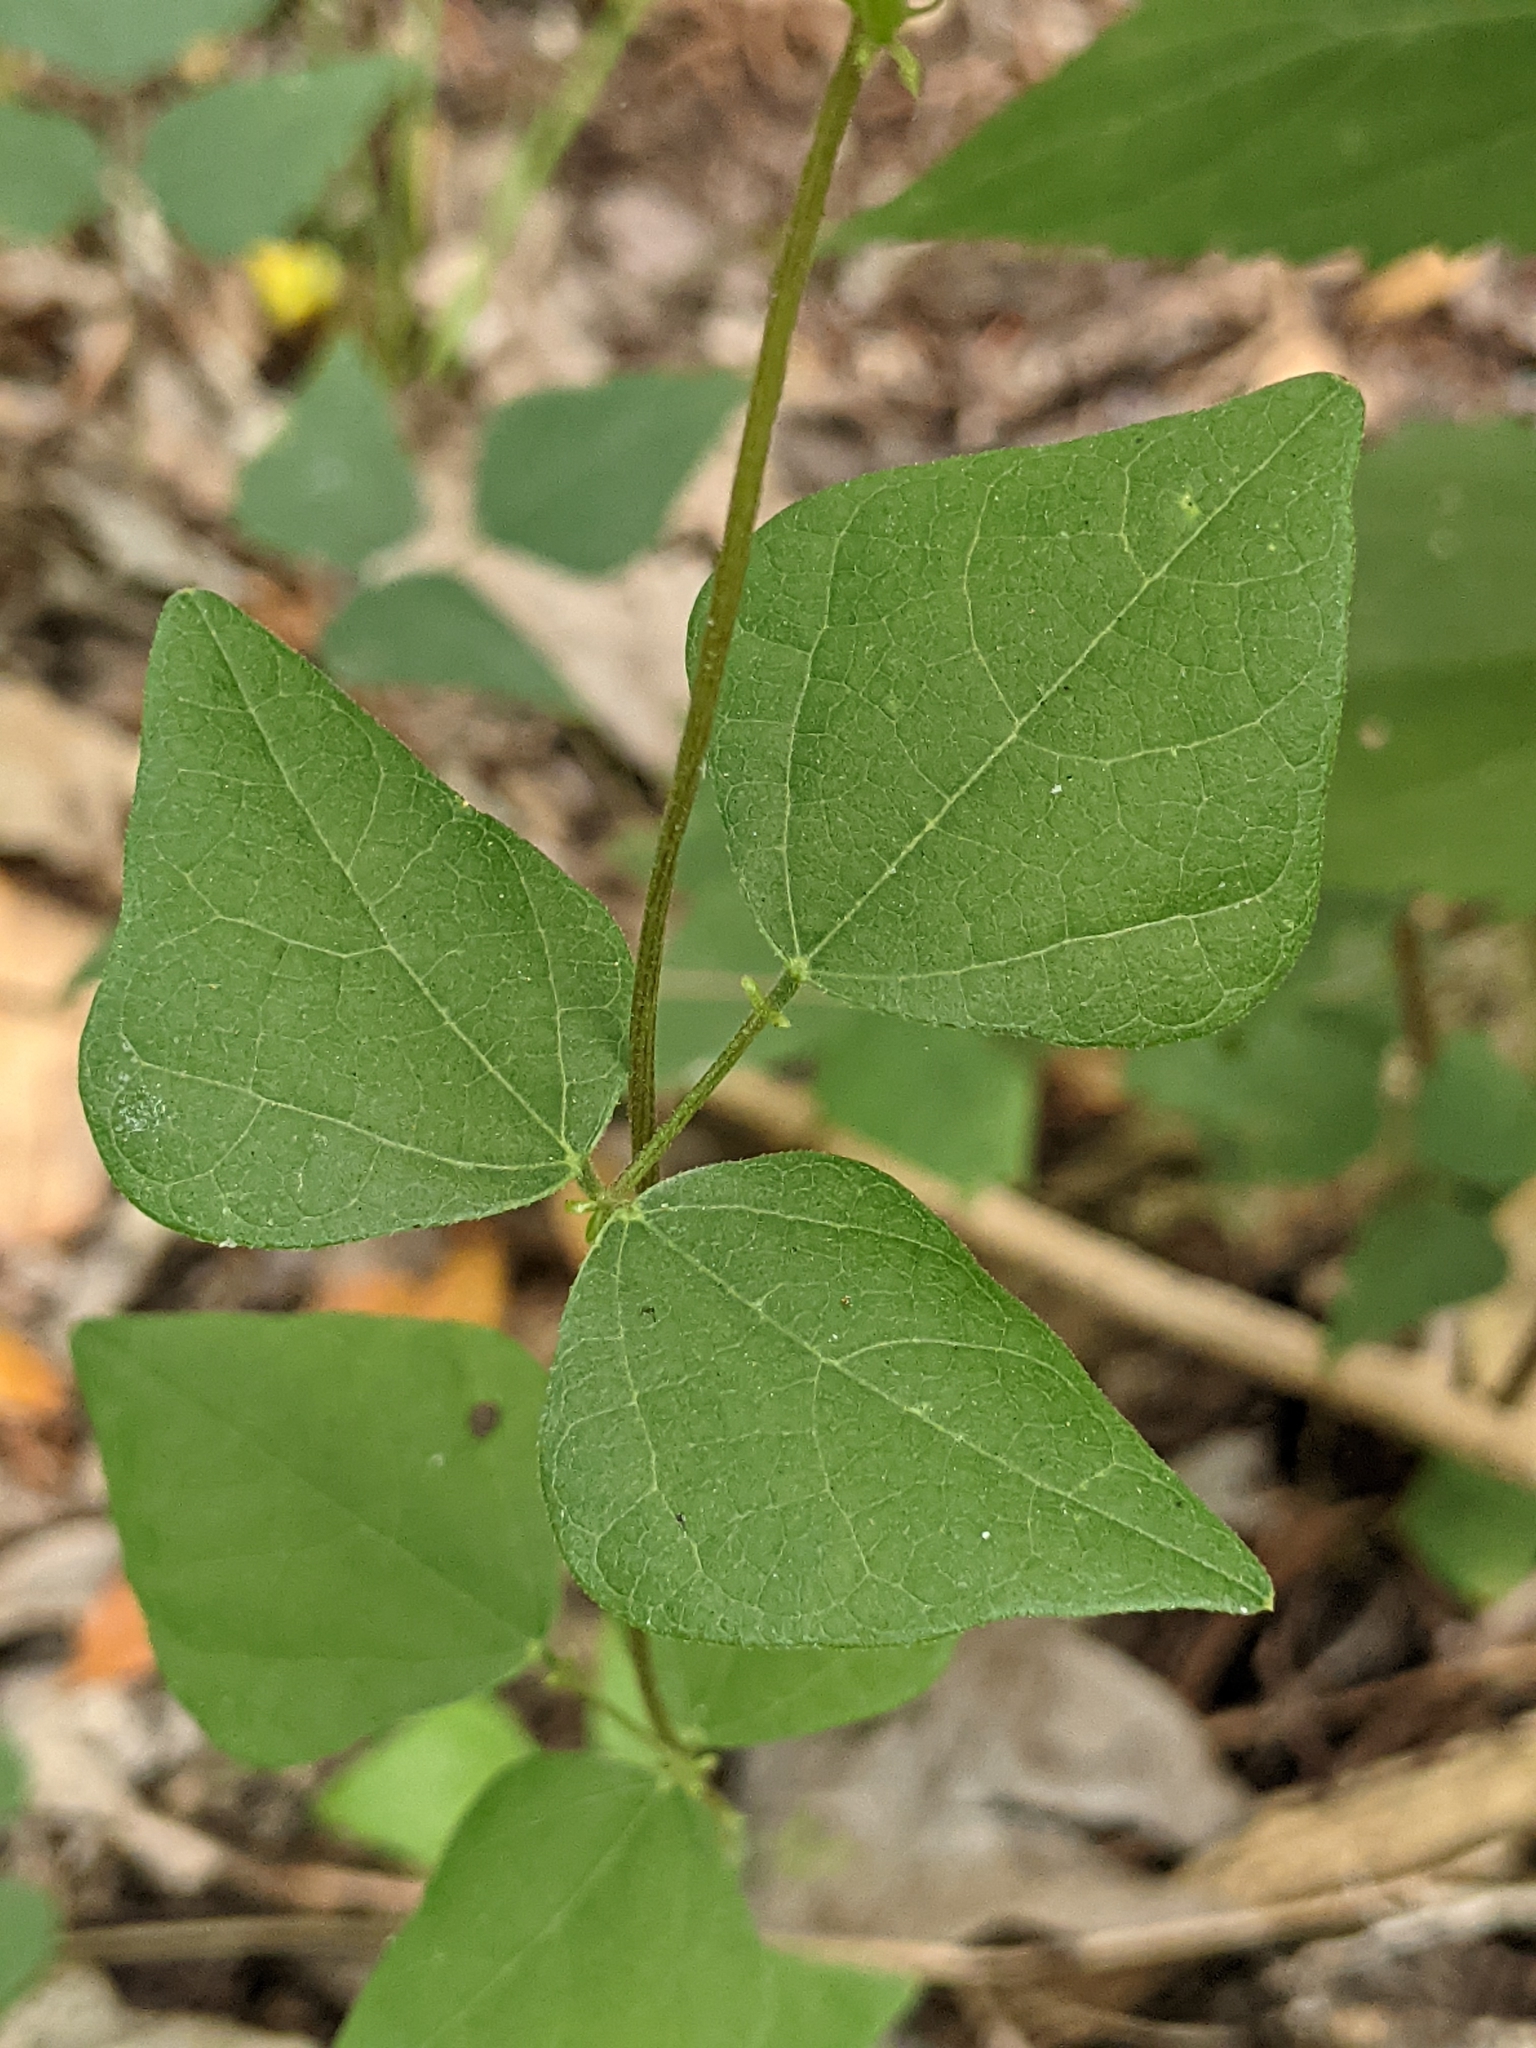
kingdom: Plantae
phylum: Tracheophyta
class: Magnoliopsida
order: Fabales
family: Fabaceae
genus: Phaseolus
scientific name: Phaseolus texensis
